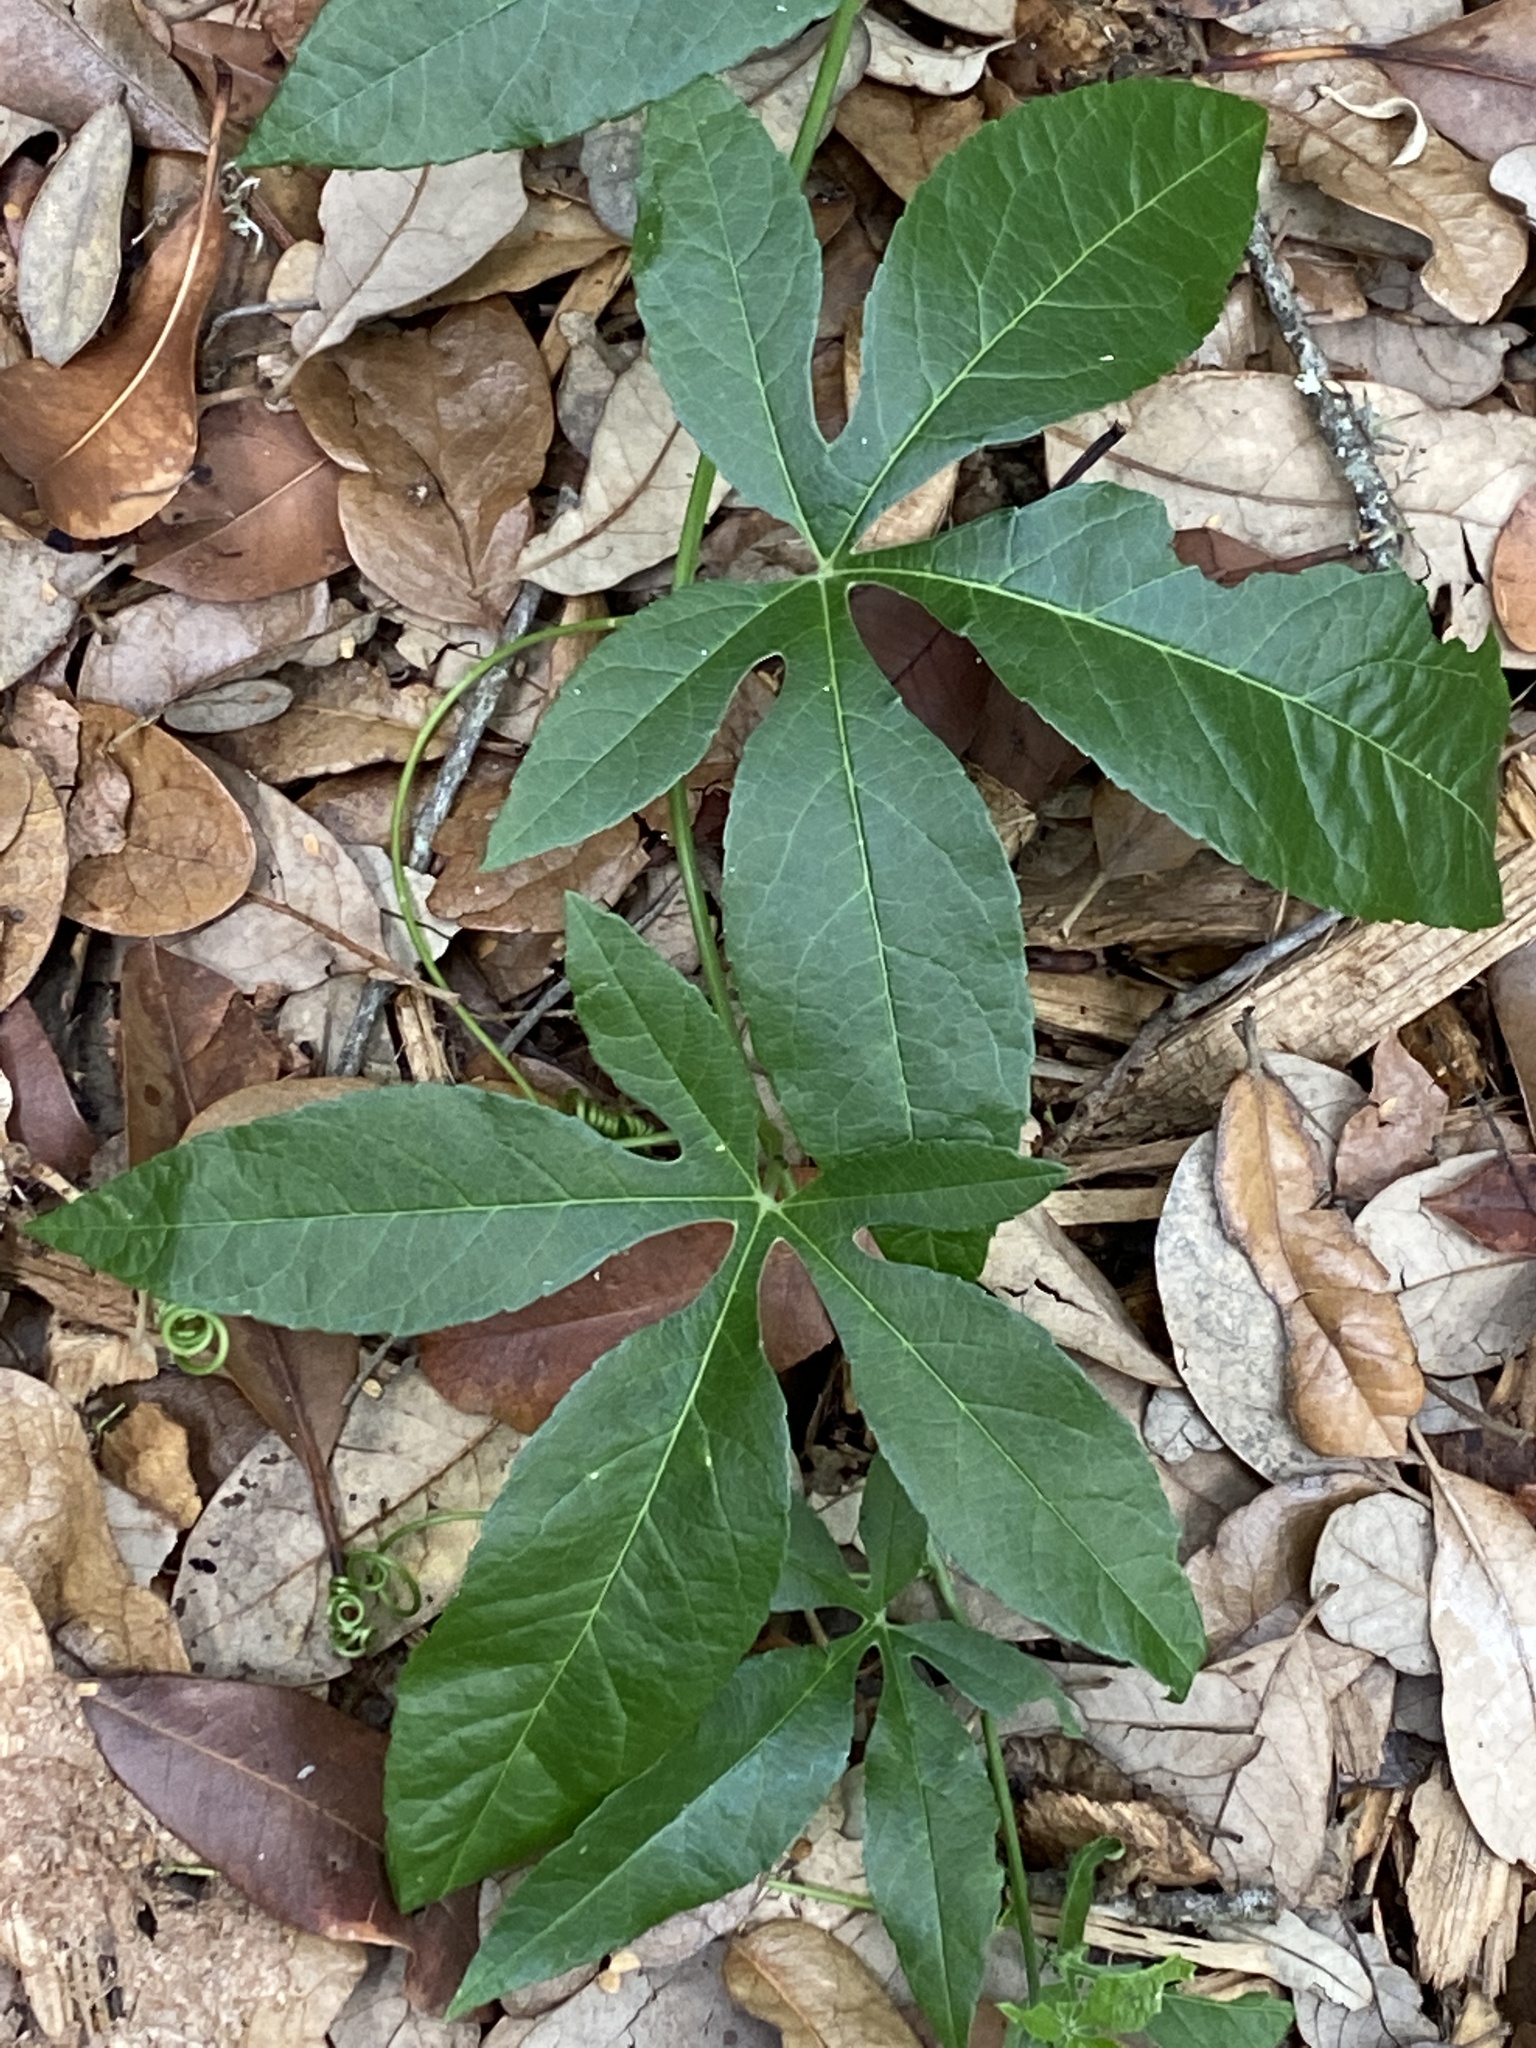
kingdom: Plantae
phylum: Tracheophyta
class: Magnoliopsida
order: Malpighiales
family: Passifloraceae
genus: Passiflora
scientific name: Passiflora
